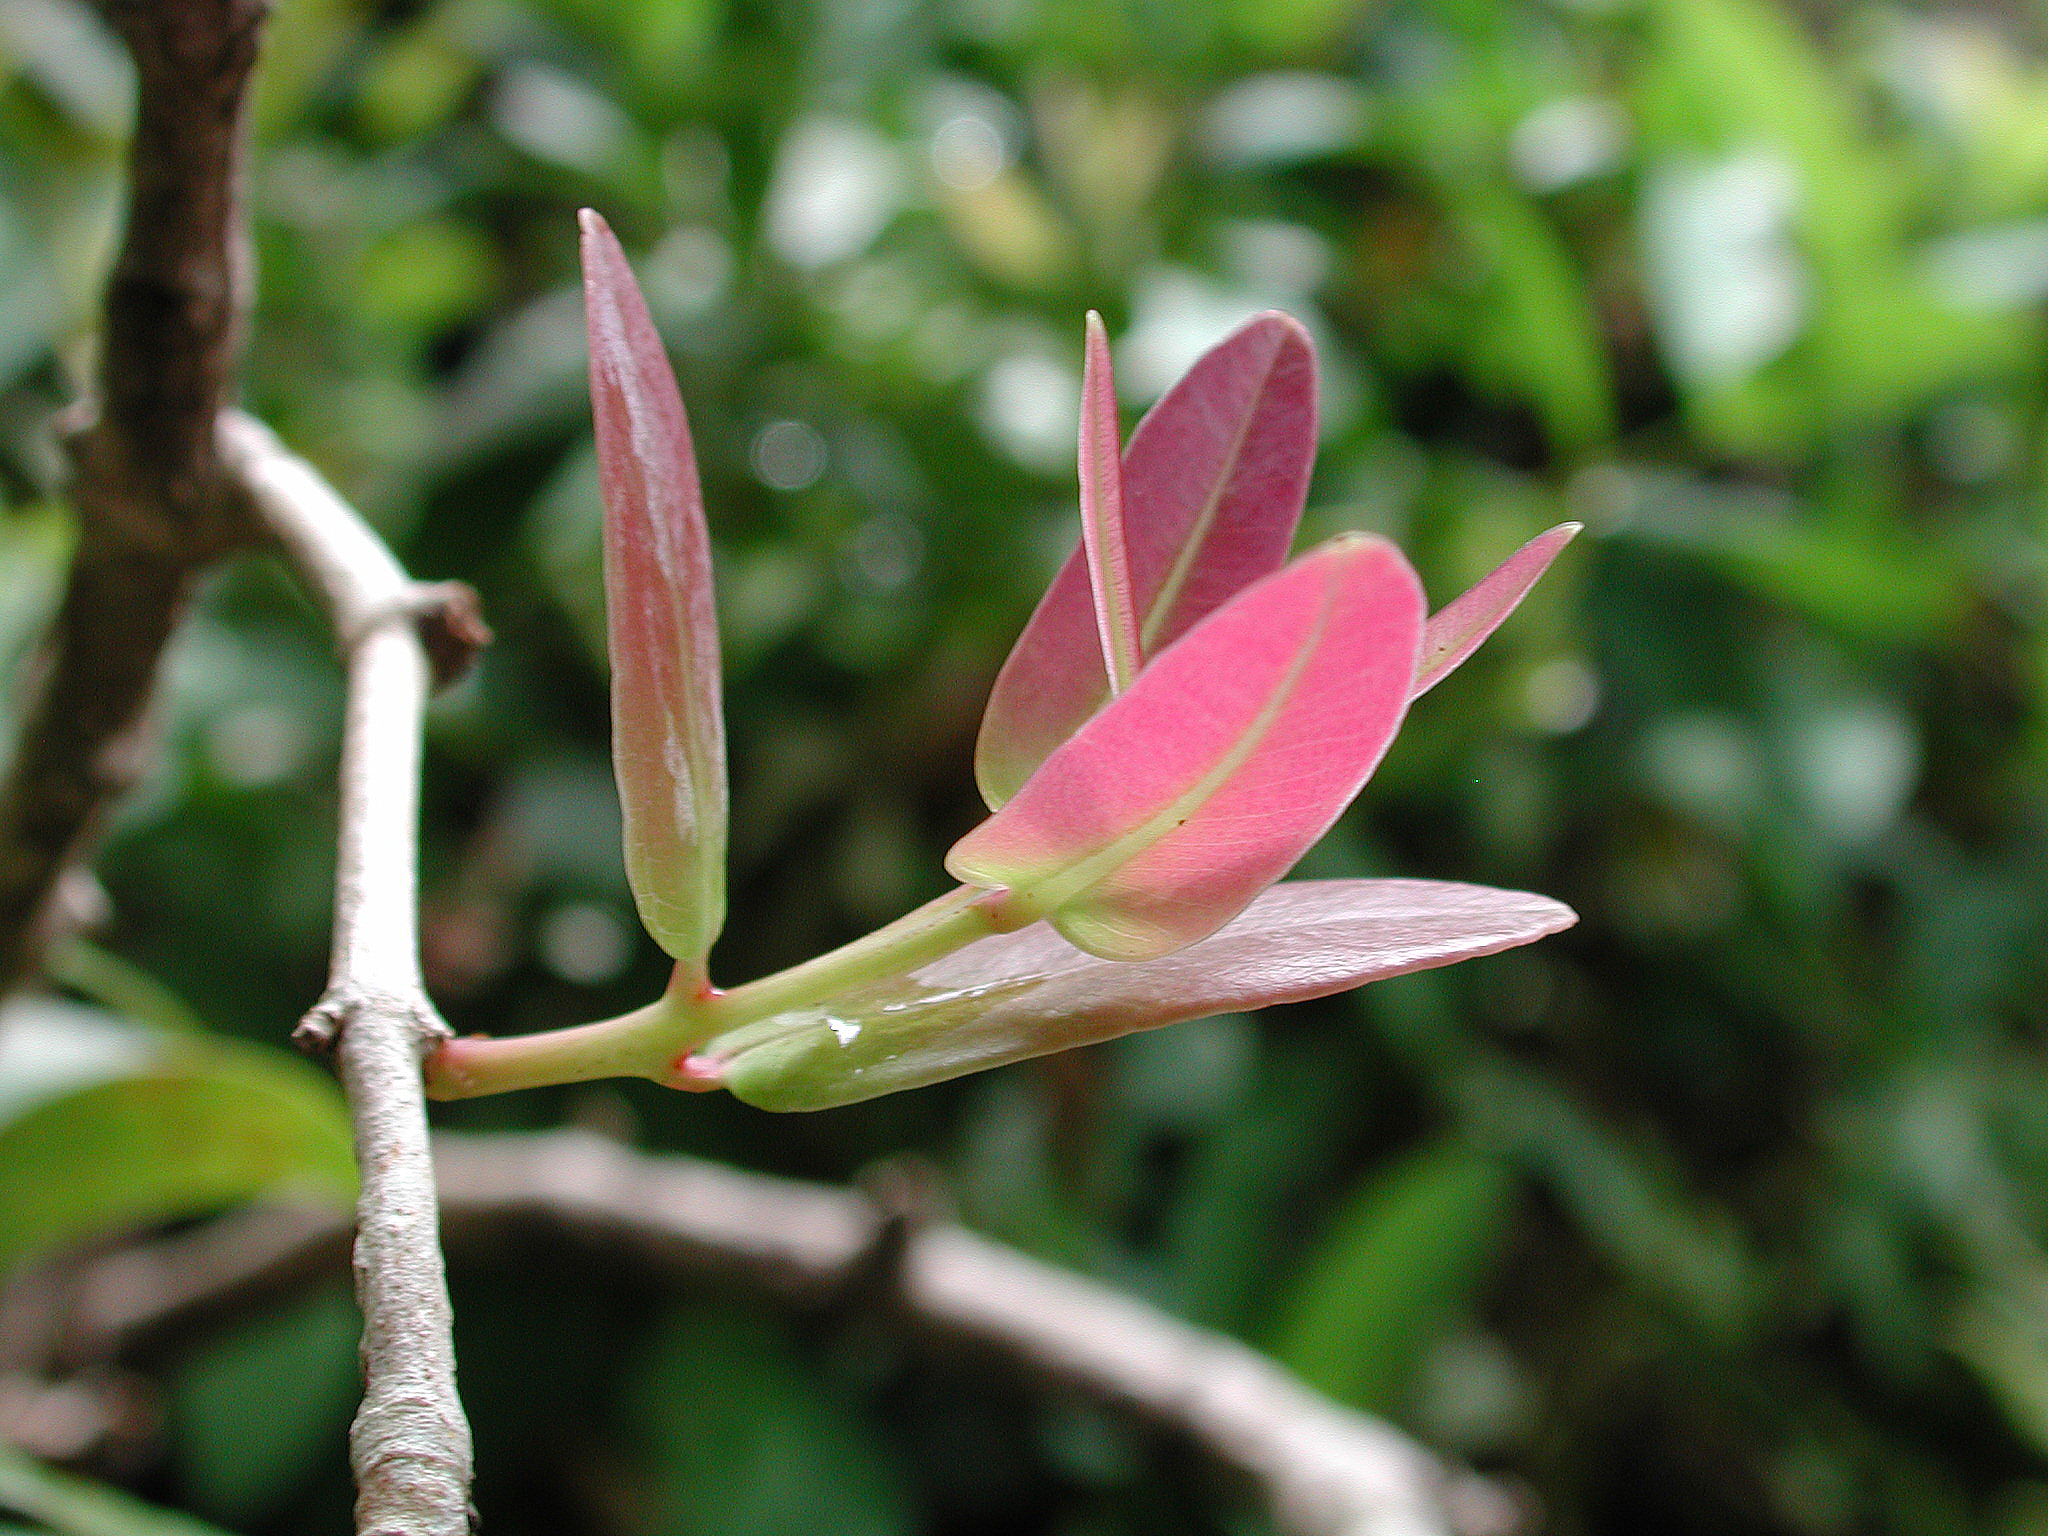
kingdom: Plantae
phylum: Tracheophyta
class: Magnoliopsida
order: Myrtales
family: Myrtaceae
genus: Syzygium
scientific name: Syzygium cordatum
